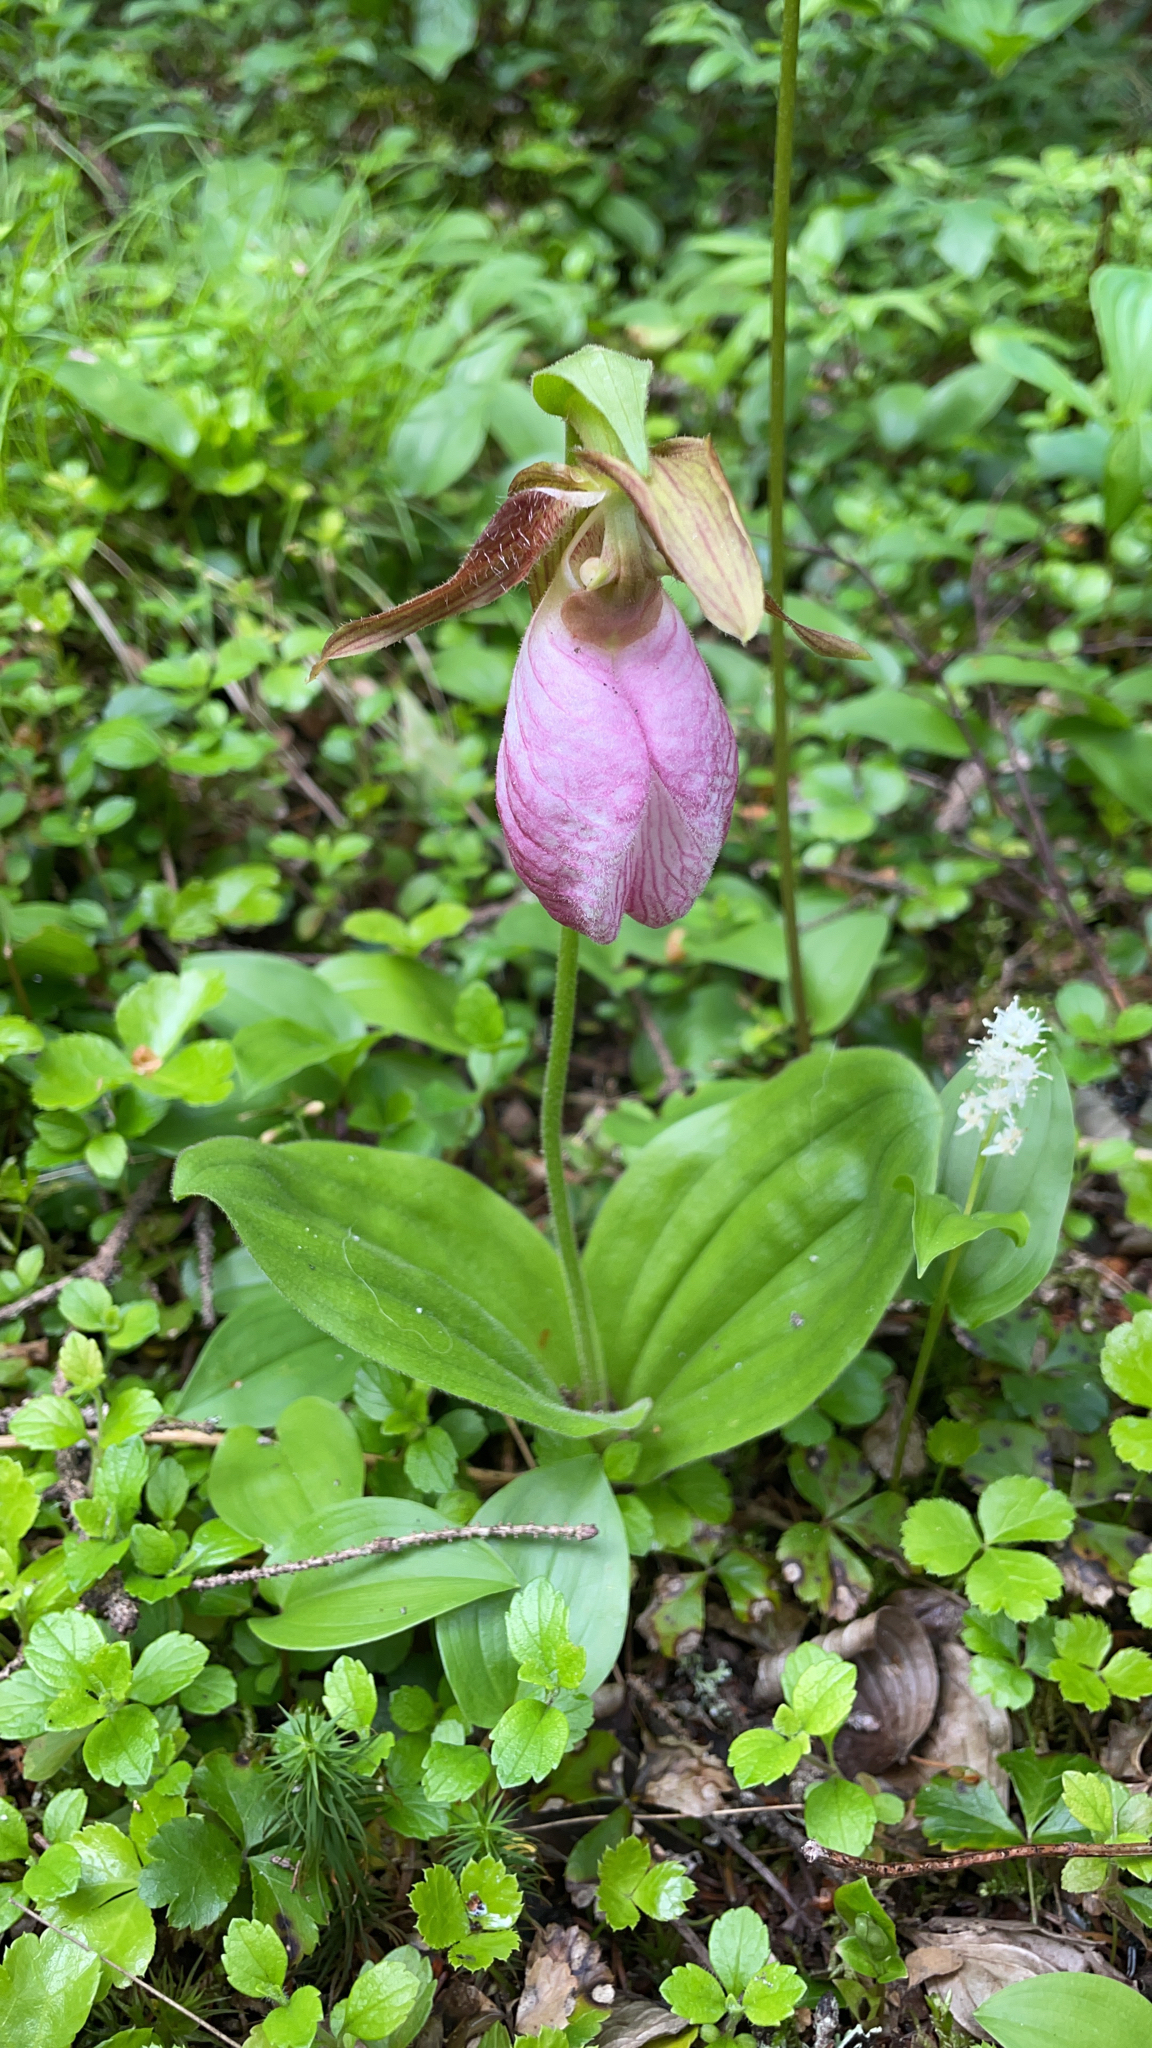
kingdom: Plantae
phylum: Tracheophyta
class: Liliopsida
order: Asparagales
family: Orchidaceae
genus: Cypripedium
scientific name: Cypripedium acaule
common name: Pink lady's-slipper
